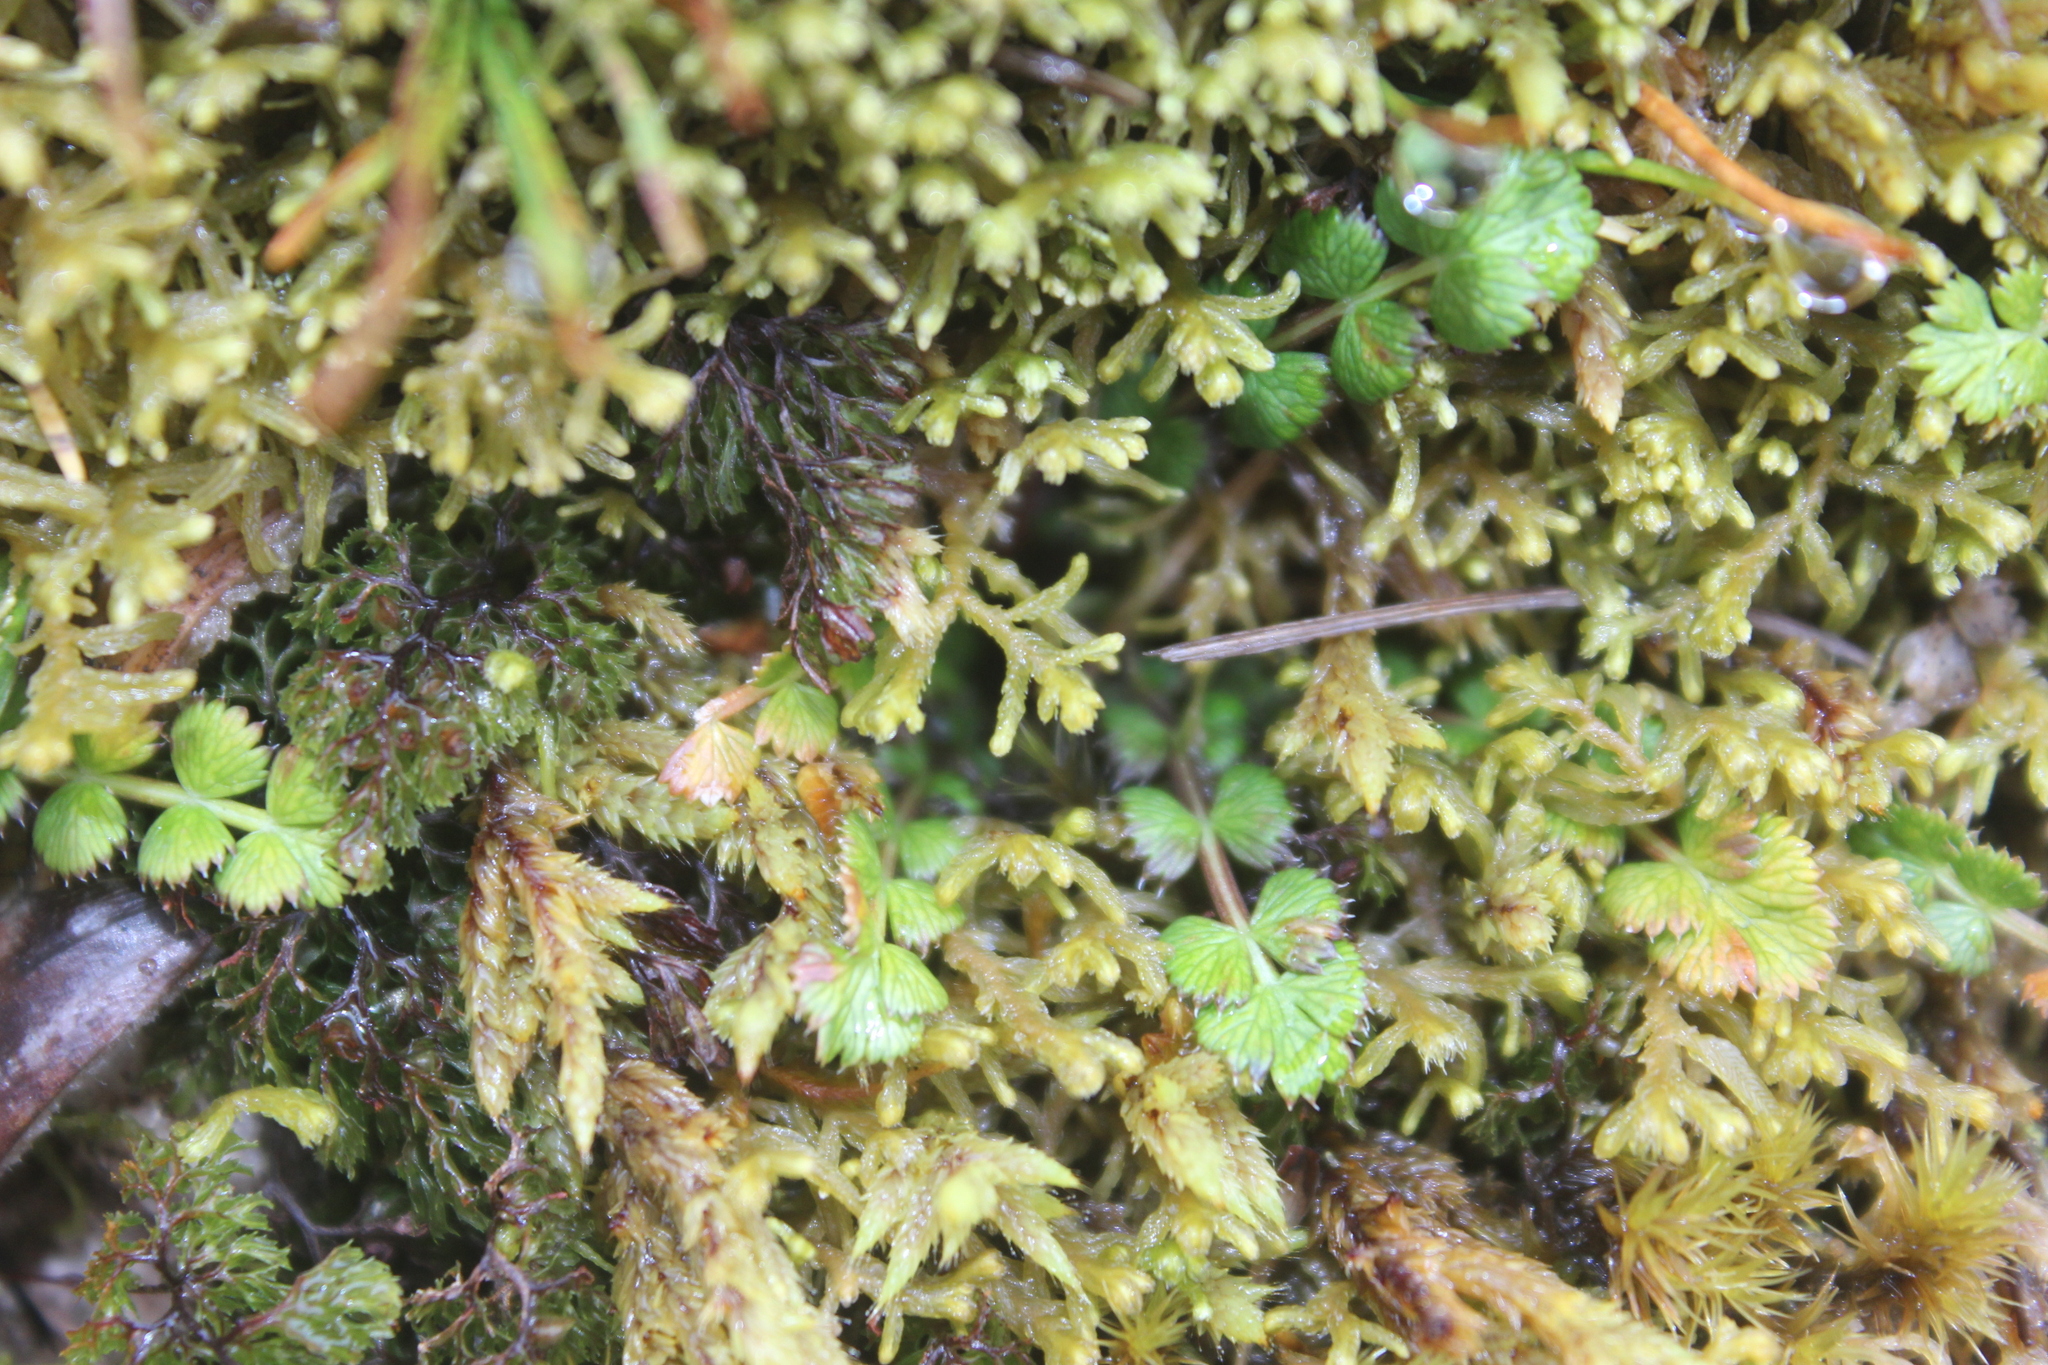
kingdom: Plantae
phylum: Tracheophyta
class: Magnoliopsida
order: Apiales
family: Apiaceae
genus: Anisotome
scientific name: Anisotome aromatica
